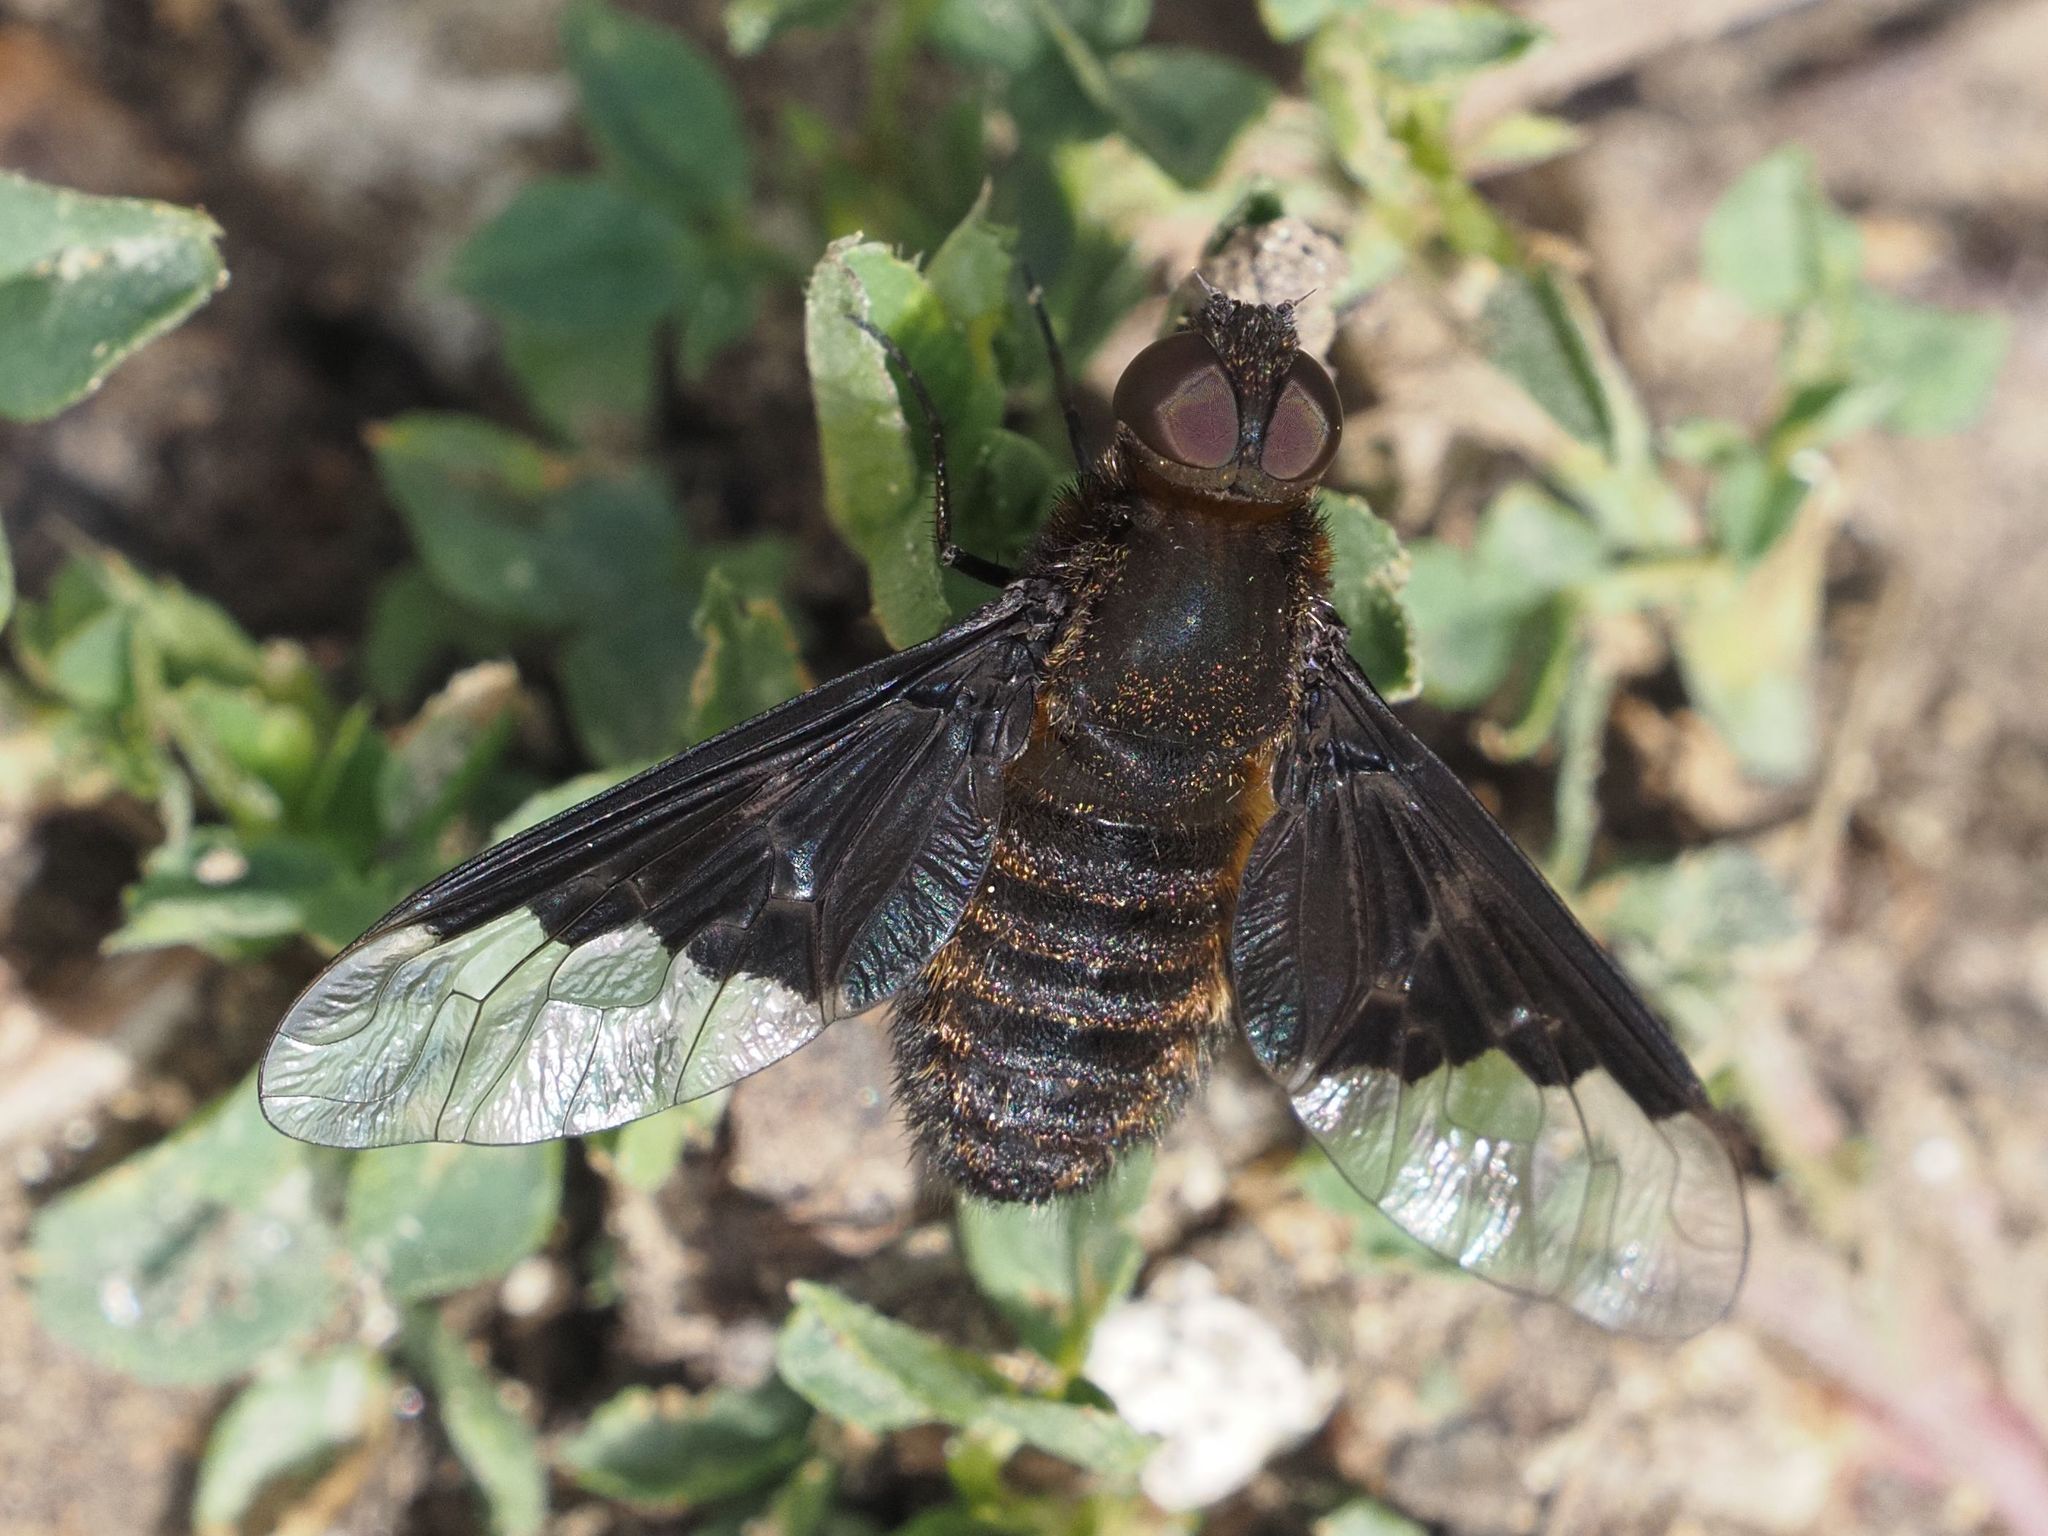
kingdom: Animalia
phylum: Arthropoda
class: Insecta
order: Diptera
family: Bombyliidae
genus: Hemipenthes
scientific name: Hemipenthes morio
